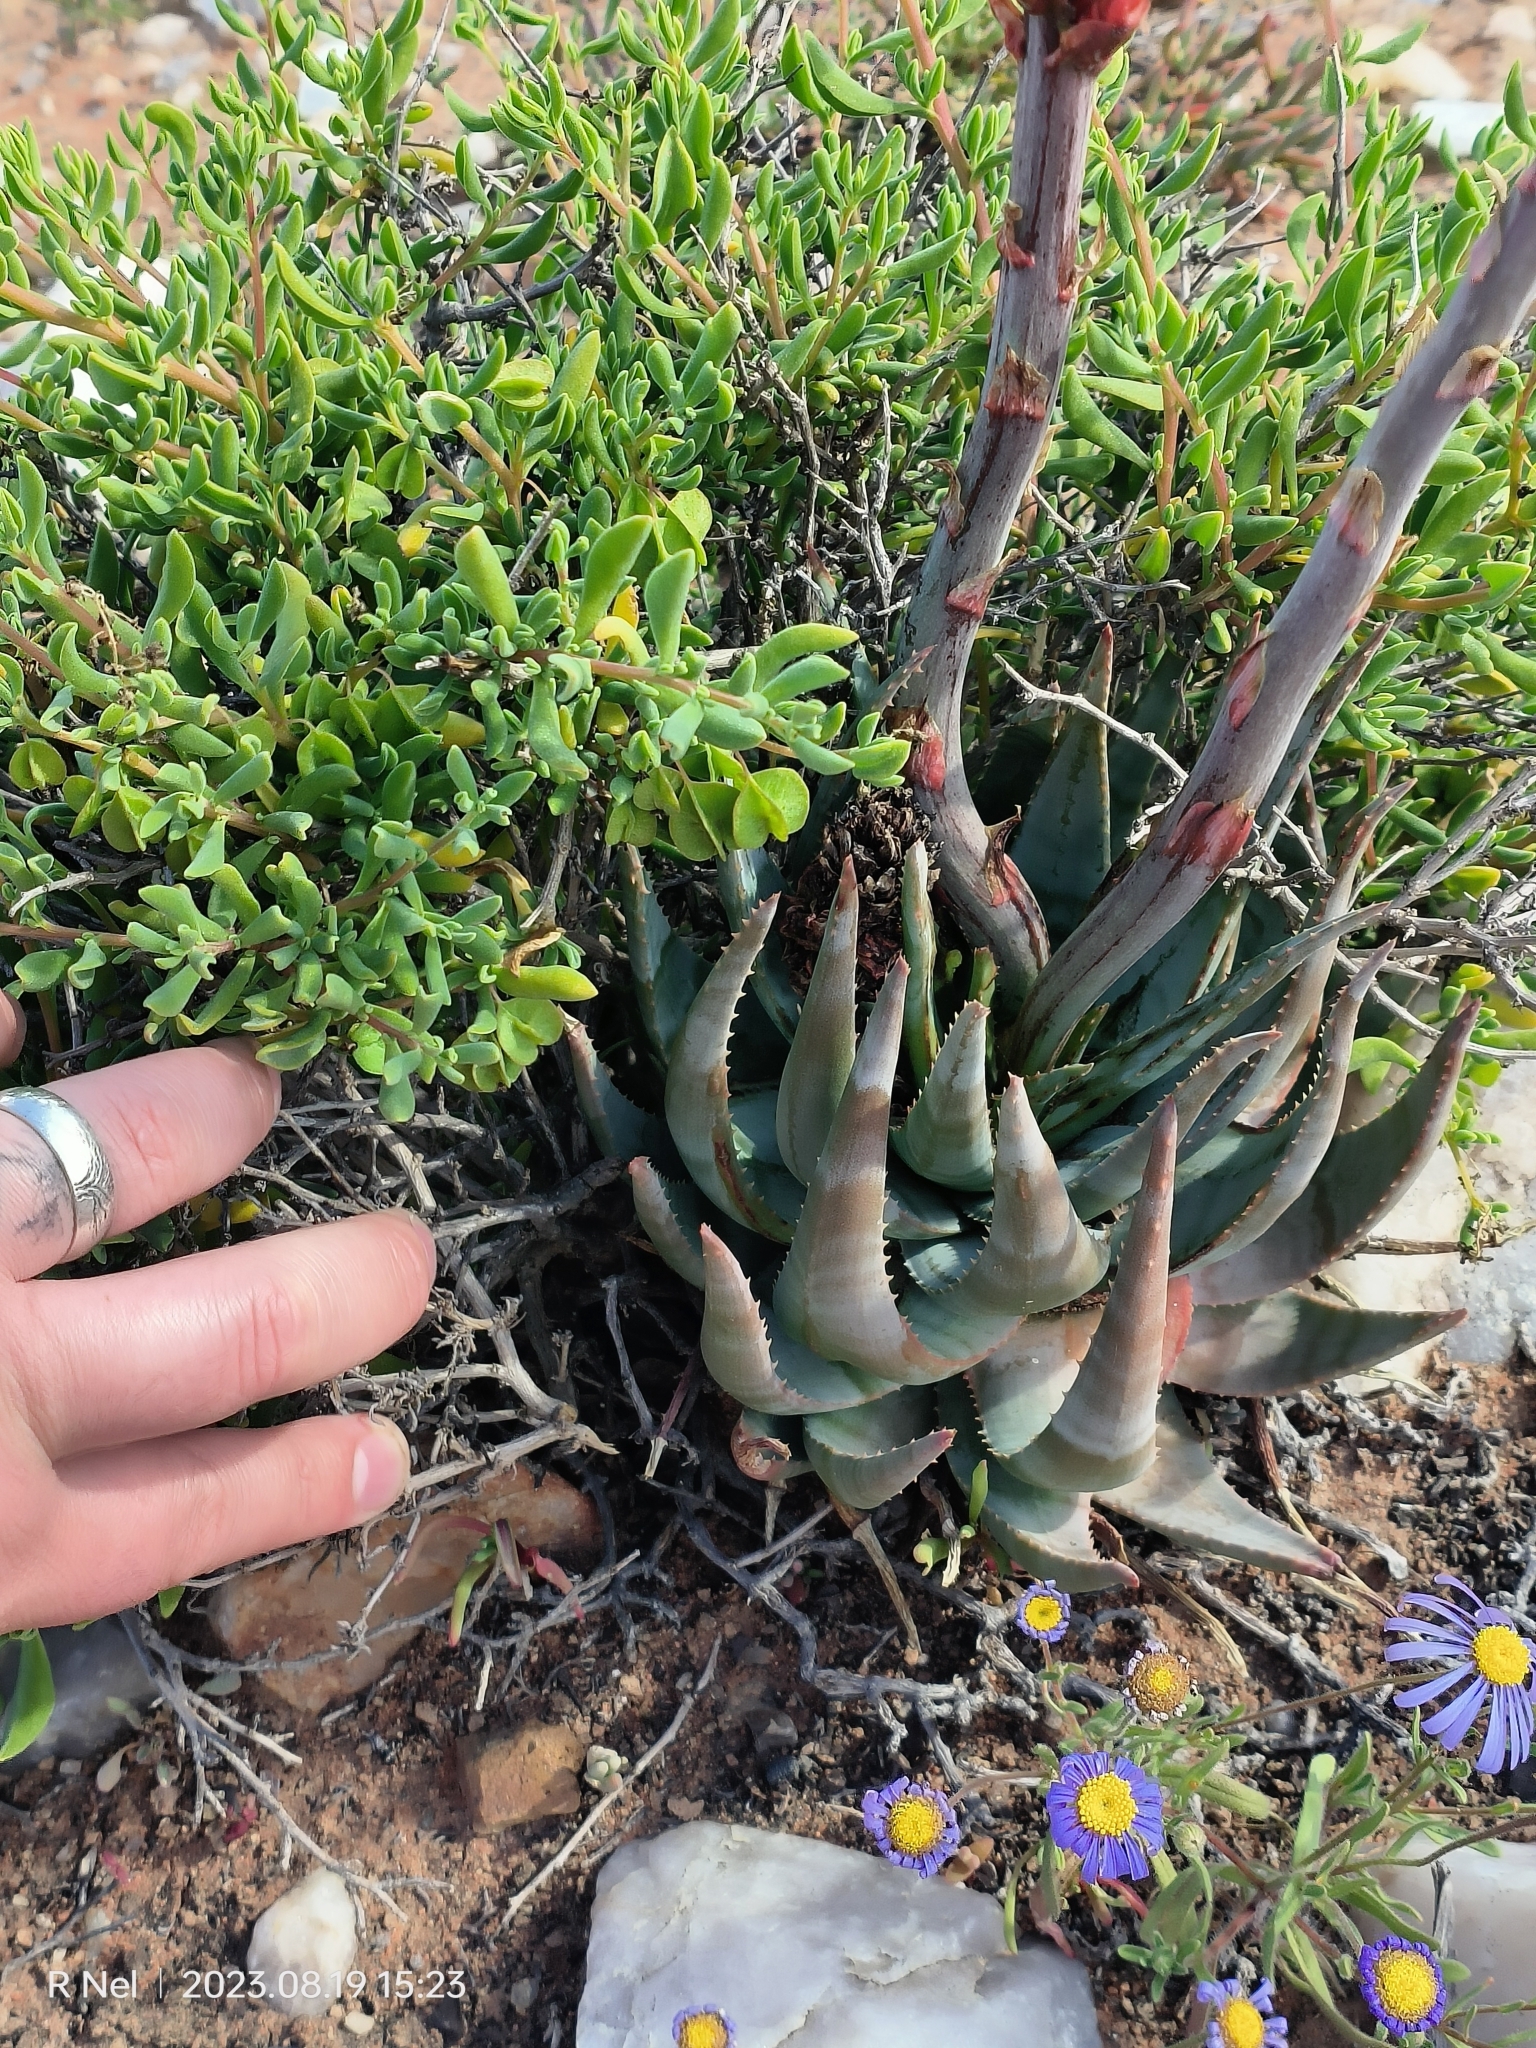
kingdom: Plantae
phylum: Tracheophyta
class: Liliopsida
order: Asparagales
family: Asphodelaceae
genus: Aloe
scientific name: Aloe krapohliana
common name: Krapohl's aloe
